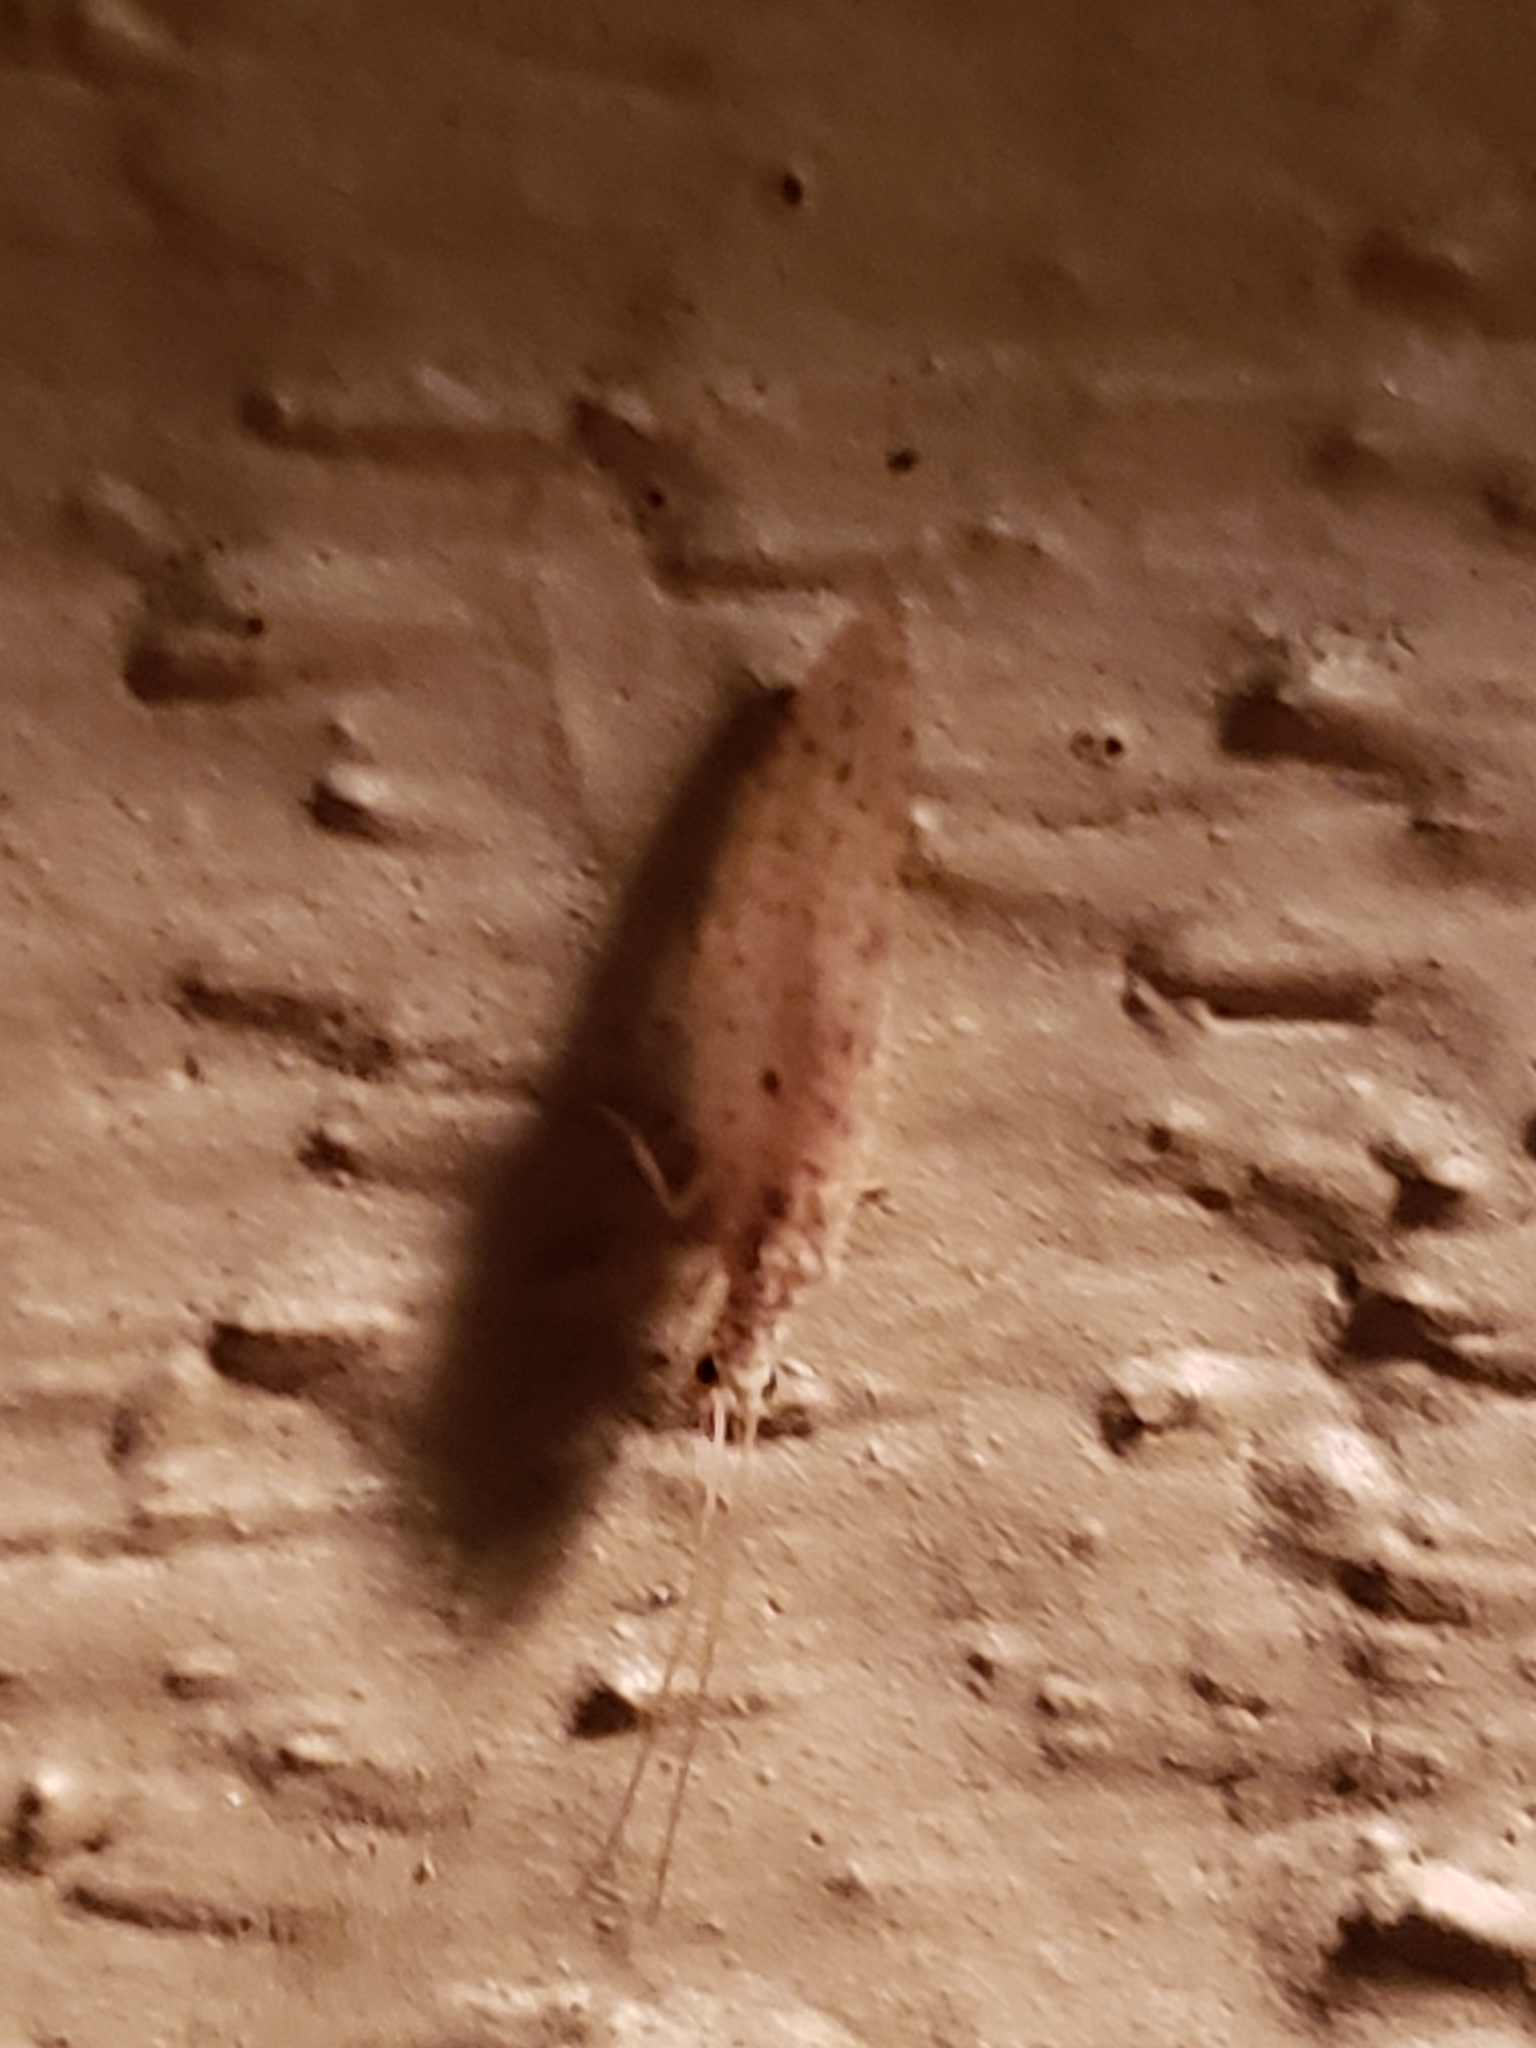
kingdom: Animalia
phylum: Arthropoda
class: Insecta
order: Neuroptera
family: Hemerobiidae
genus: Micromus
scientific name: Micromus subanticus
